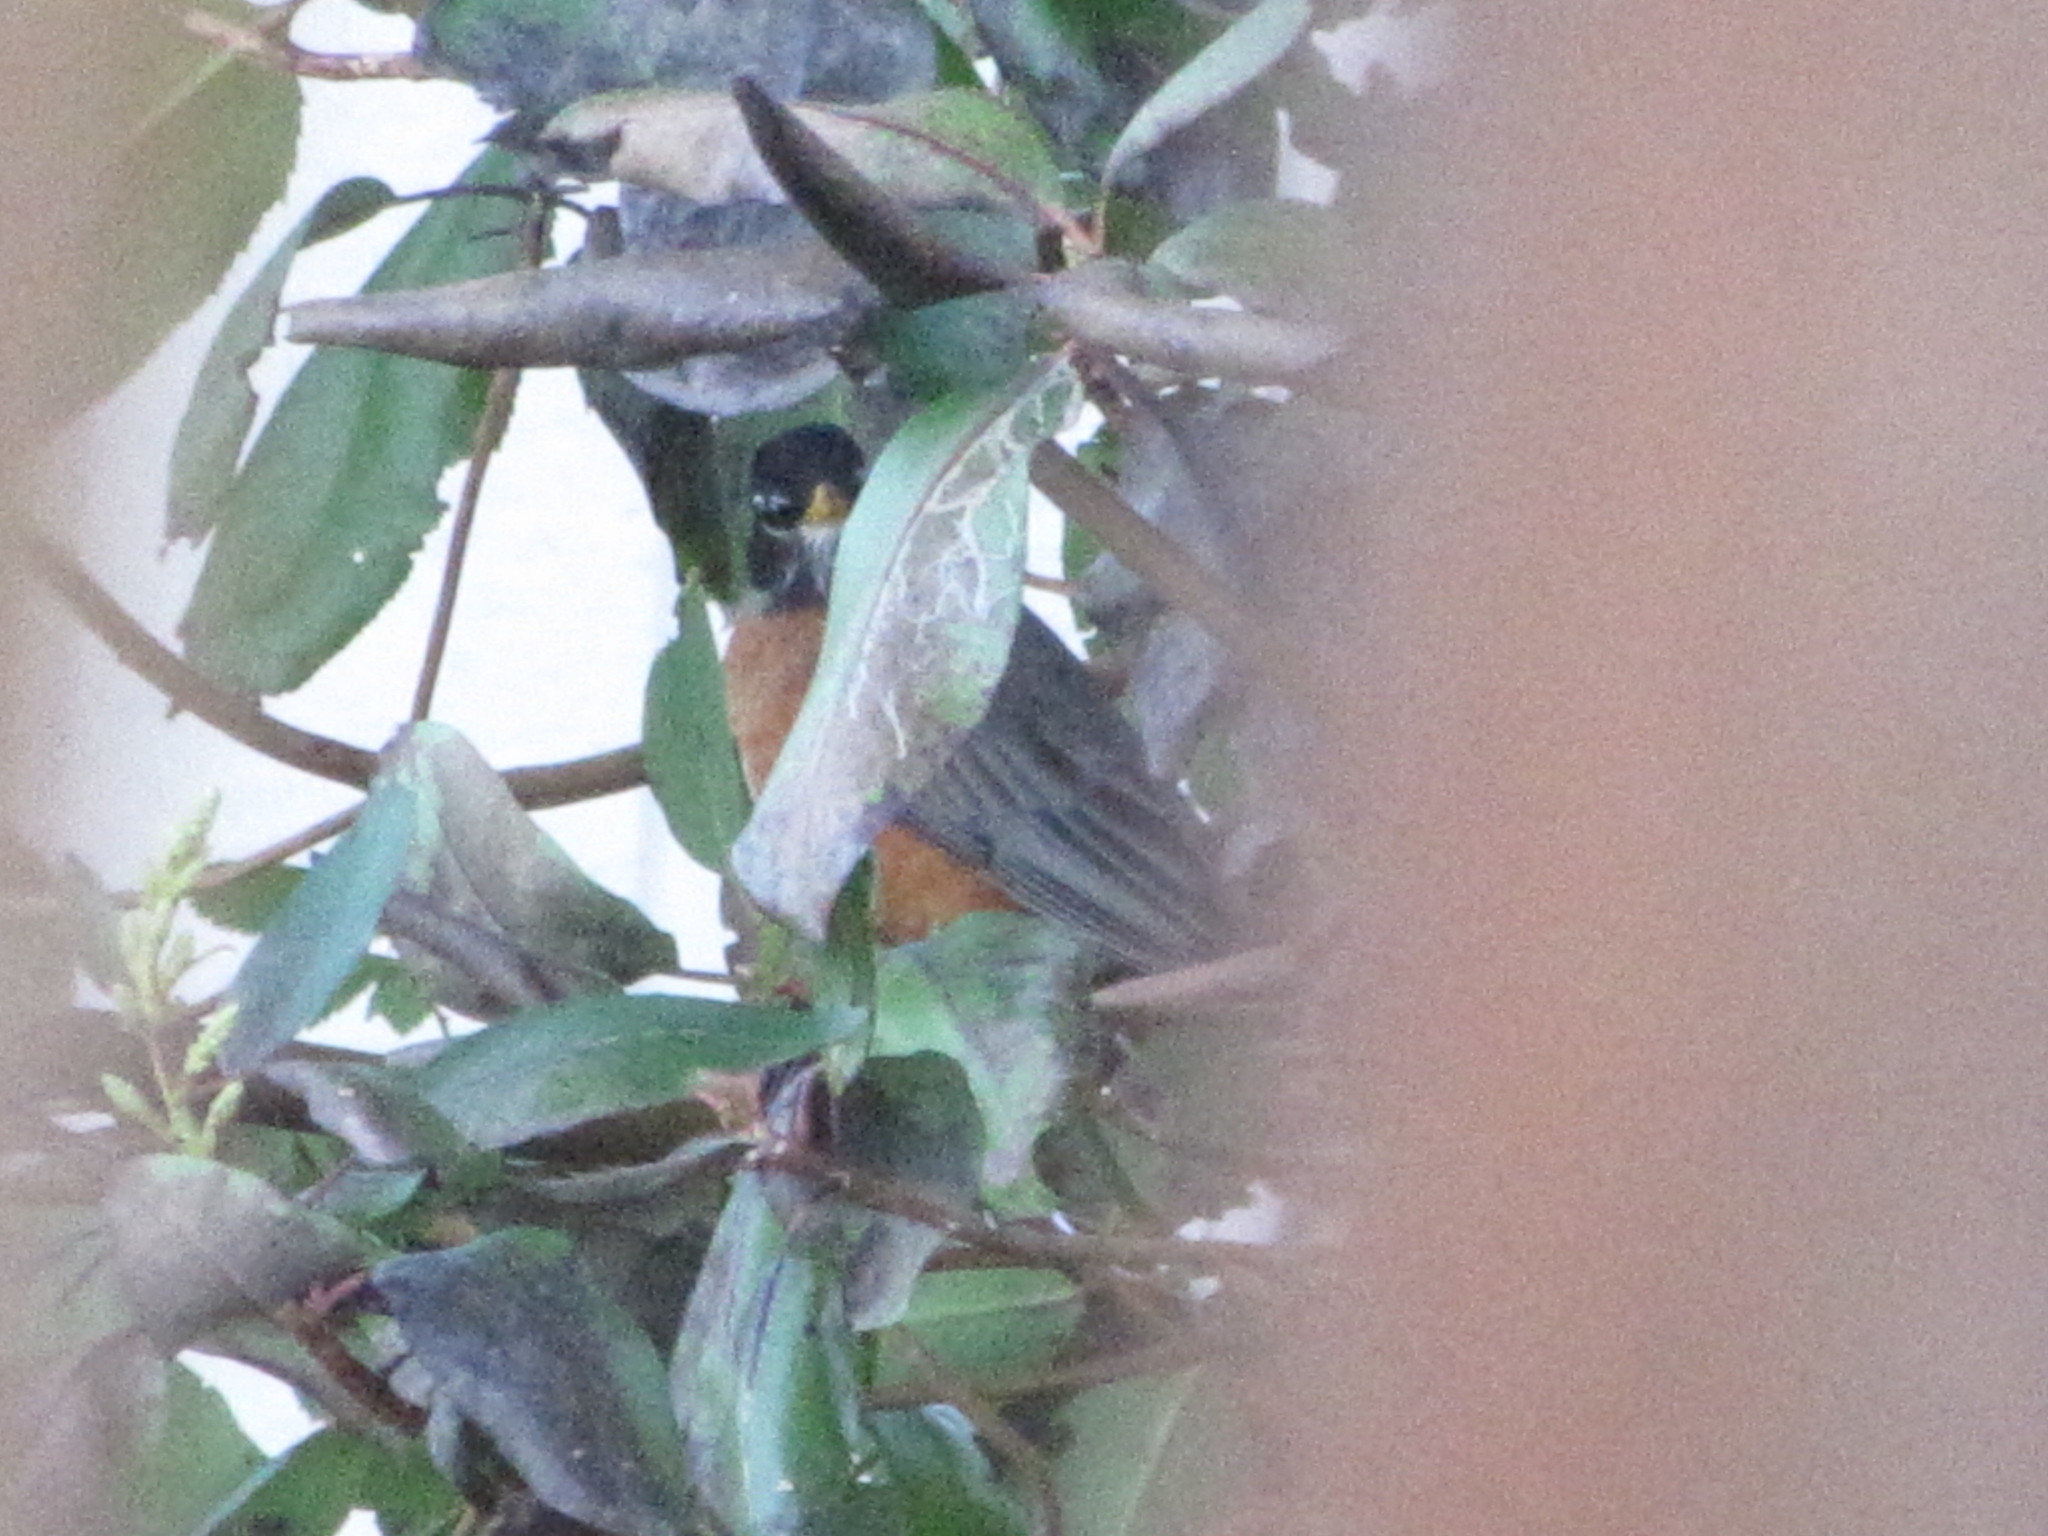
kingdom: Animalia
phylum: Chordata
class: Aves
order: Passeriformes
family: Turdidae
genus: Turdus
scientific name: Turdus migratorius
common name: American robin
